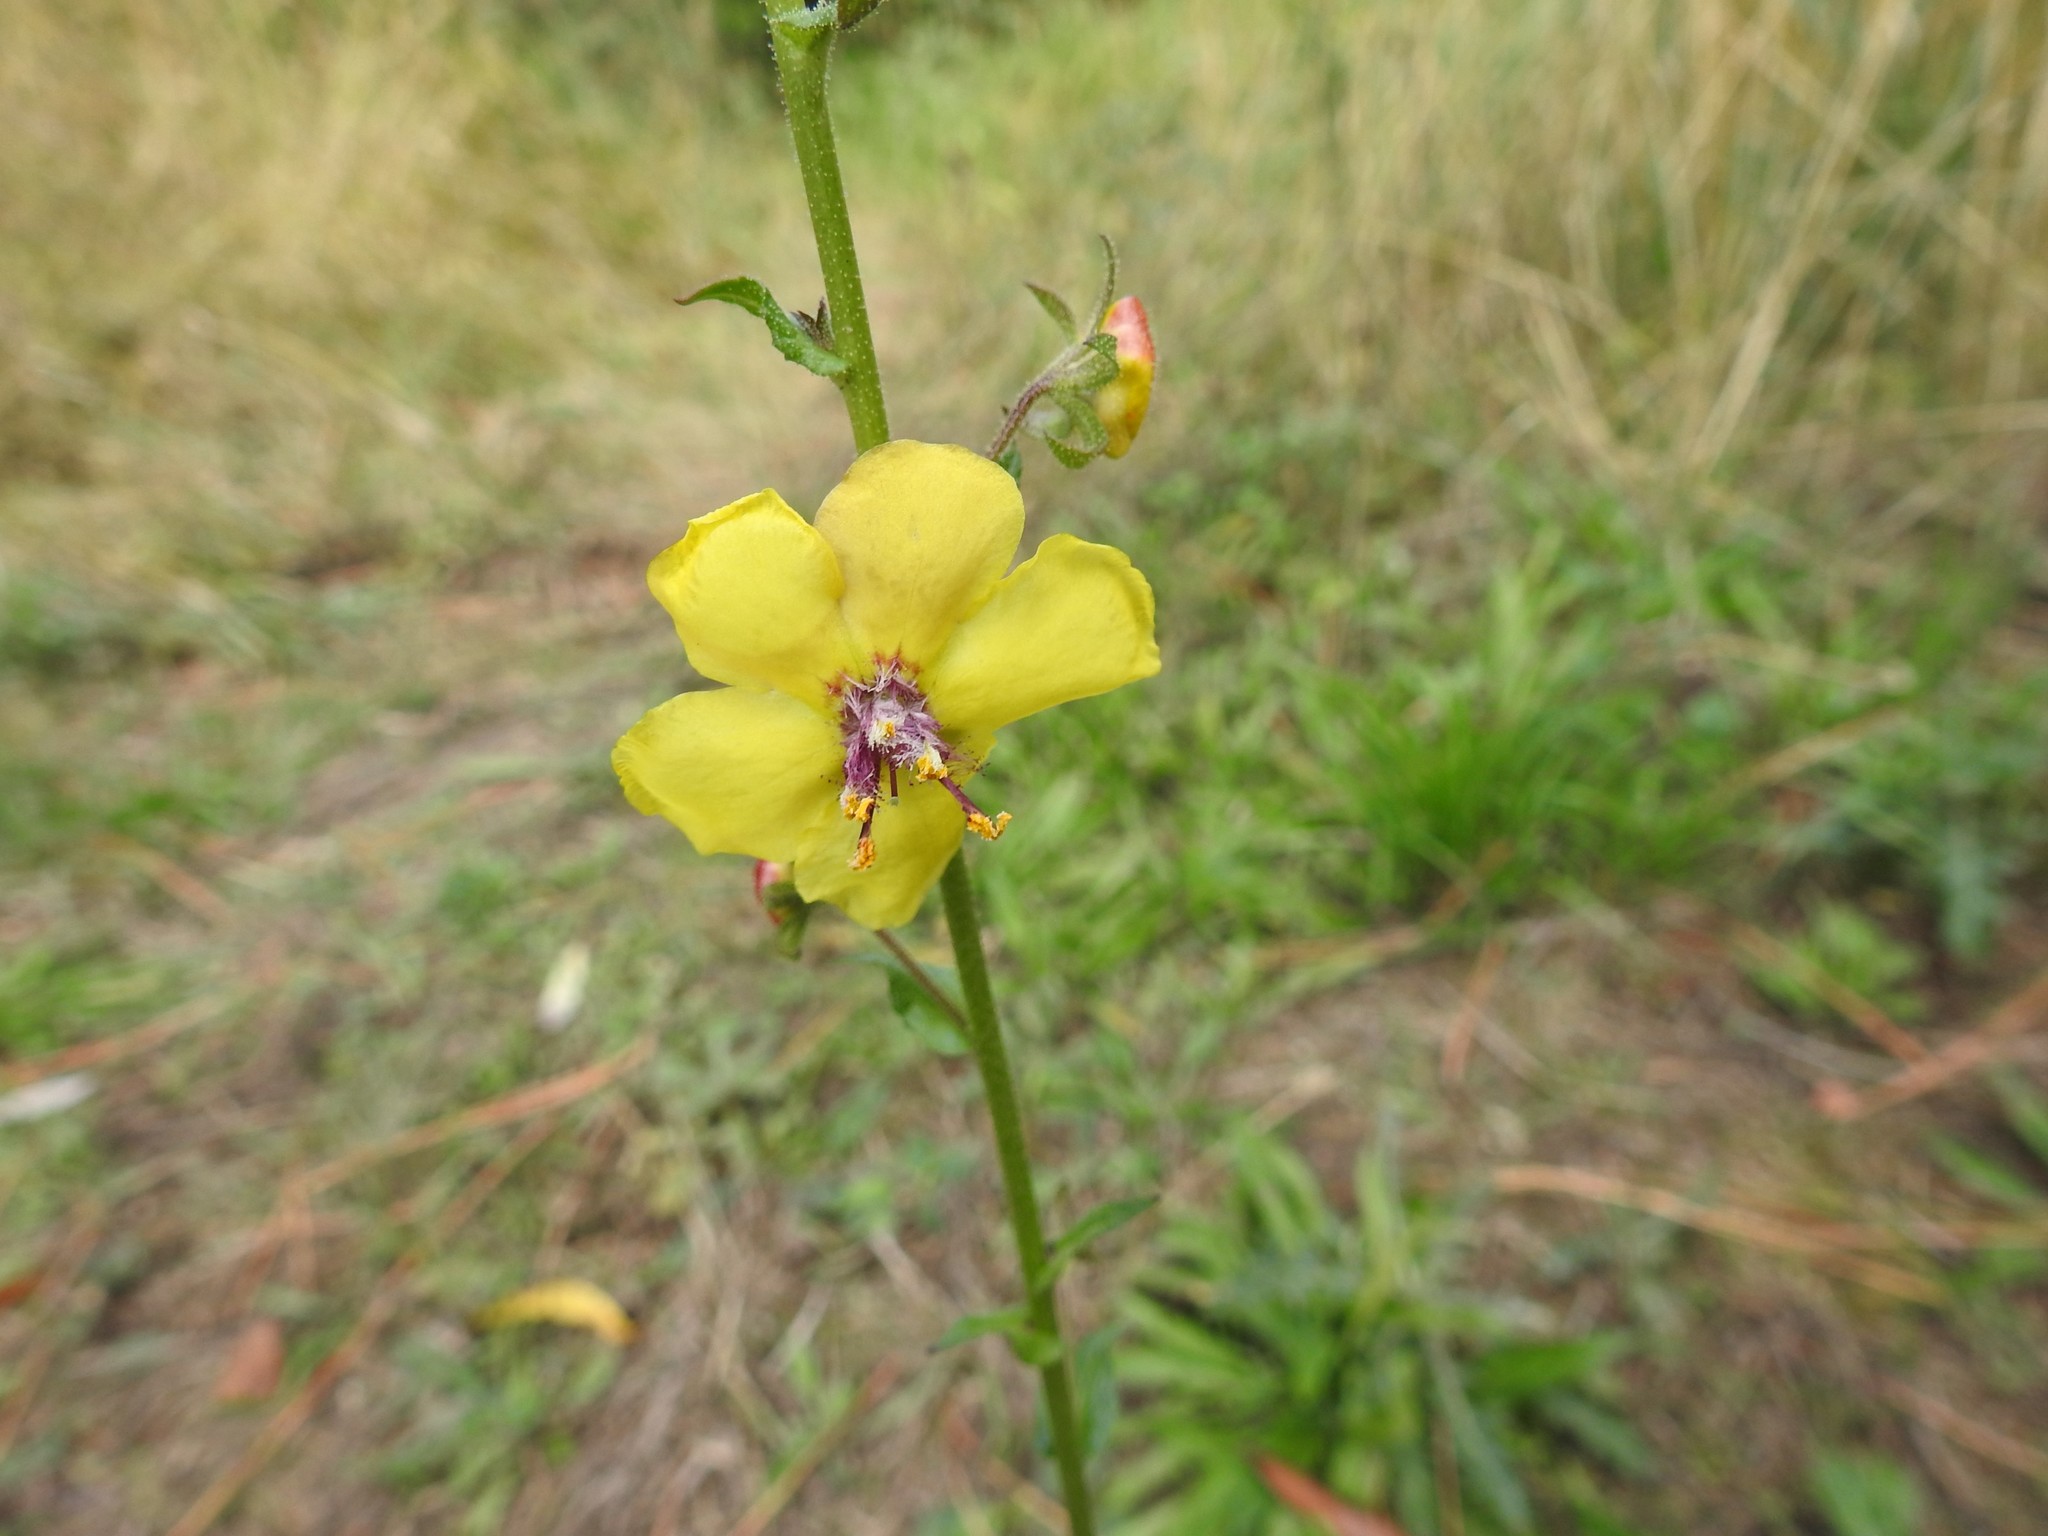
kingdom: Plantae
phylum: Tracheophyta
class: Magnoliopsida
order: Lamiales
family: Scrophulariaceae
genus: Verbascum
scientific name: Verbascum blattaria
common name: Moth mullein
